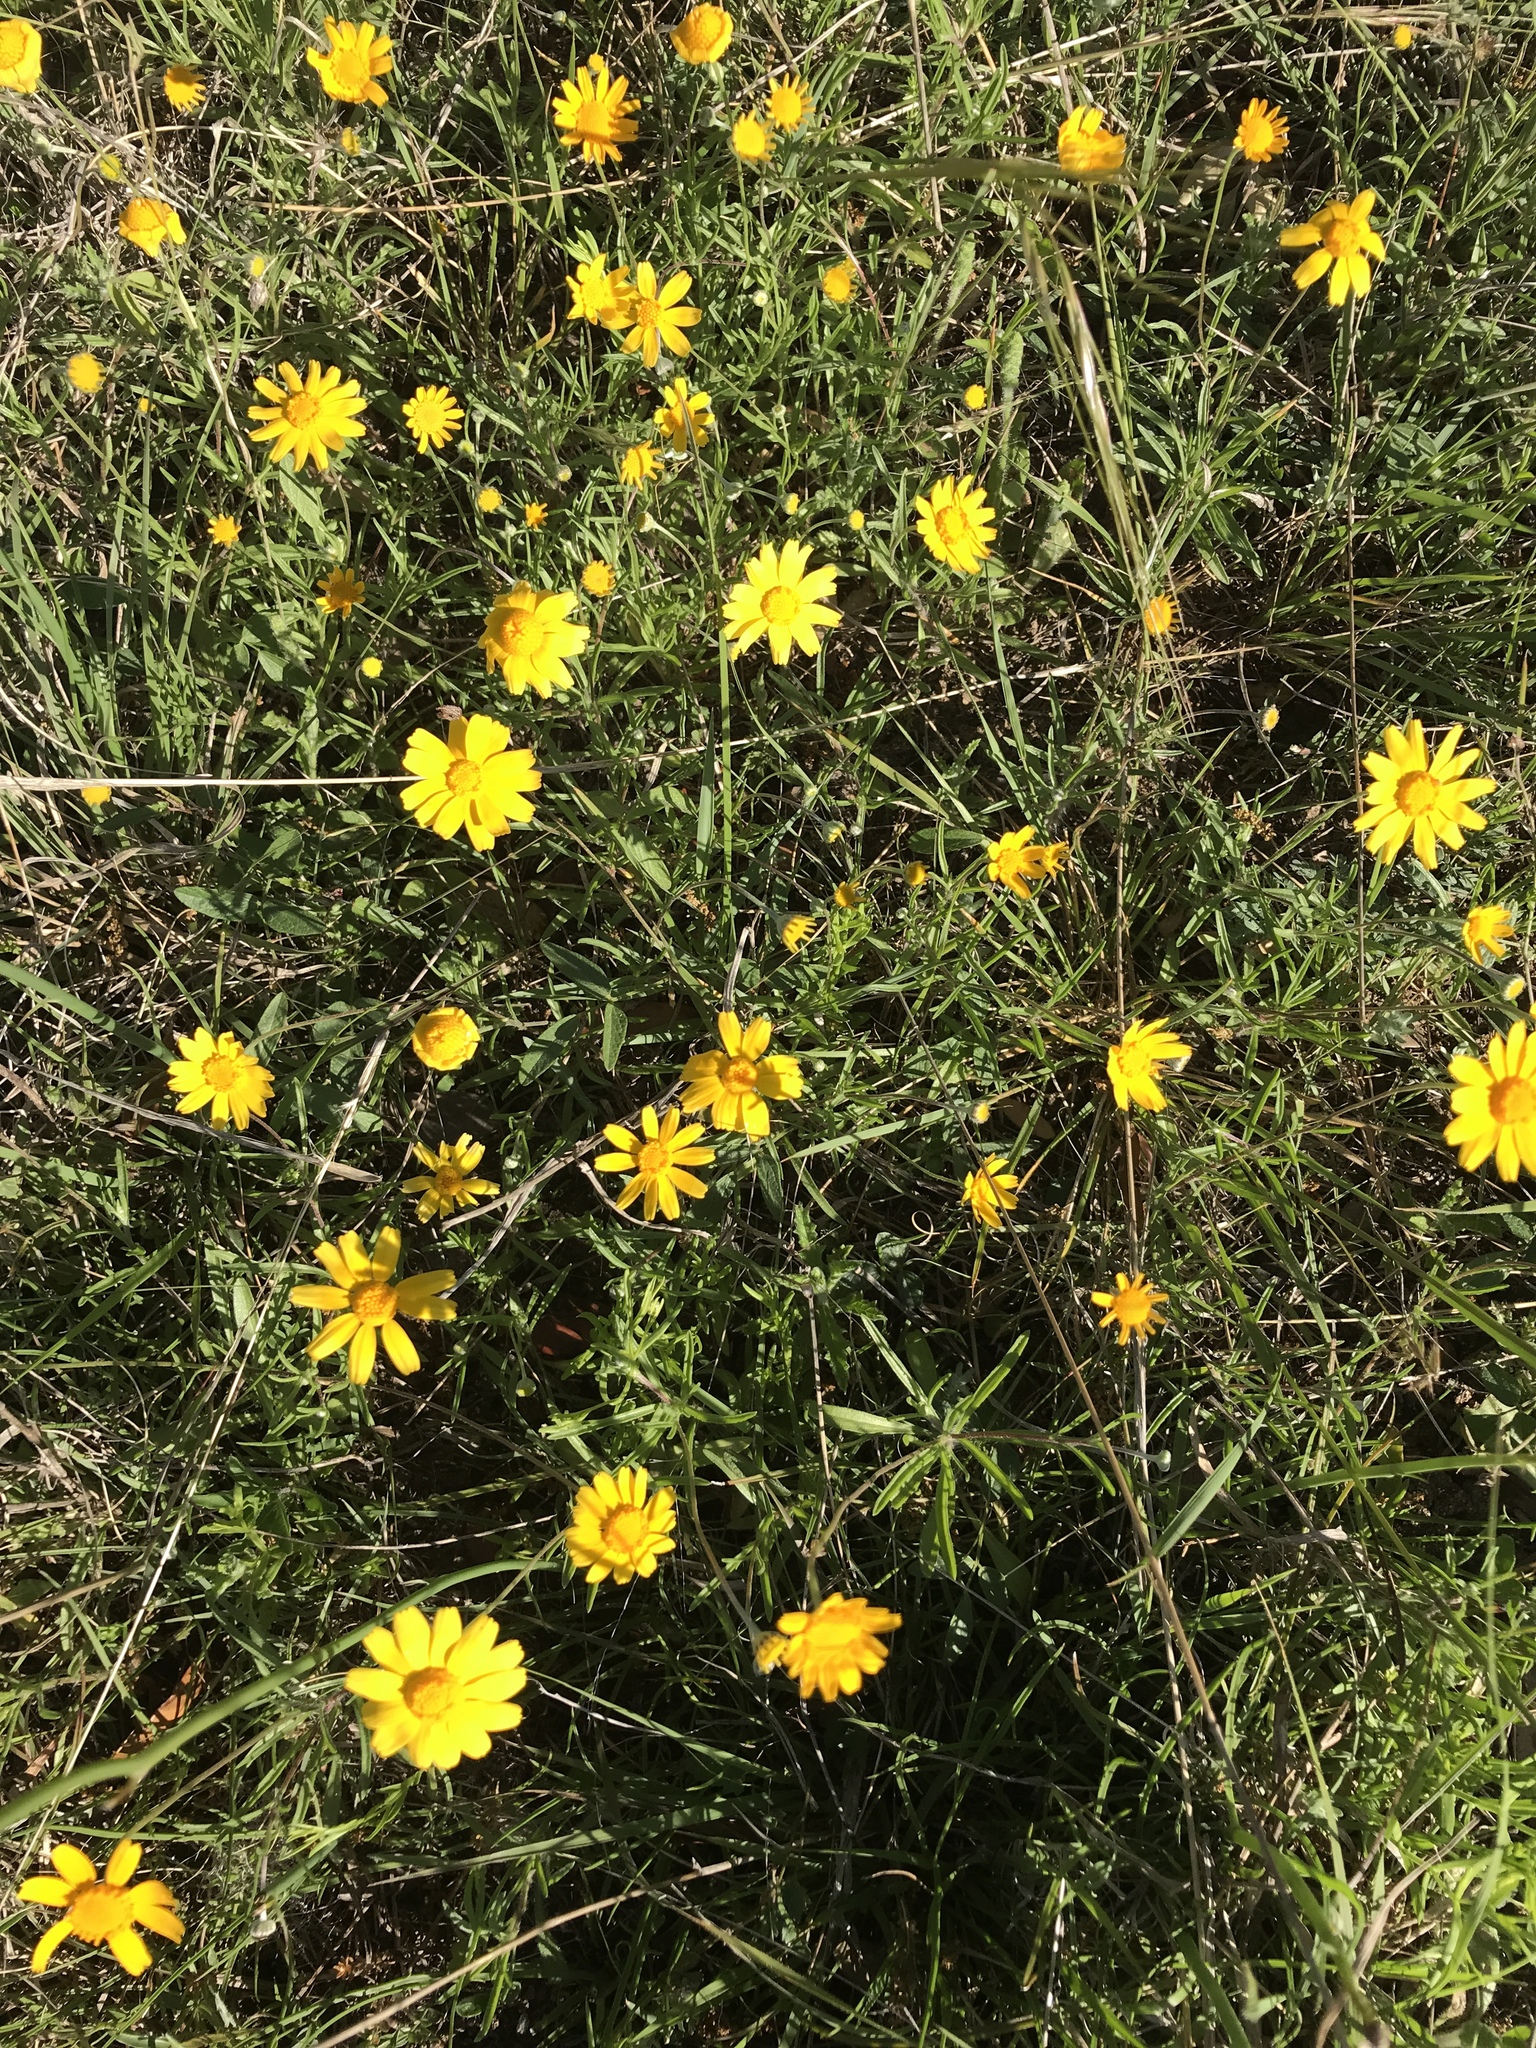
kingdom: Plantae
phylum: Tracheophyta
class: Magnoliopsida
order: Asterales
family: Asteraceae
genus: Tetraneuris
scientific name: Tetraneuris scaposa
